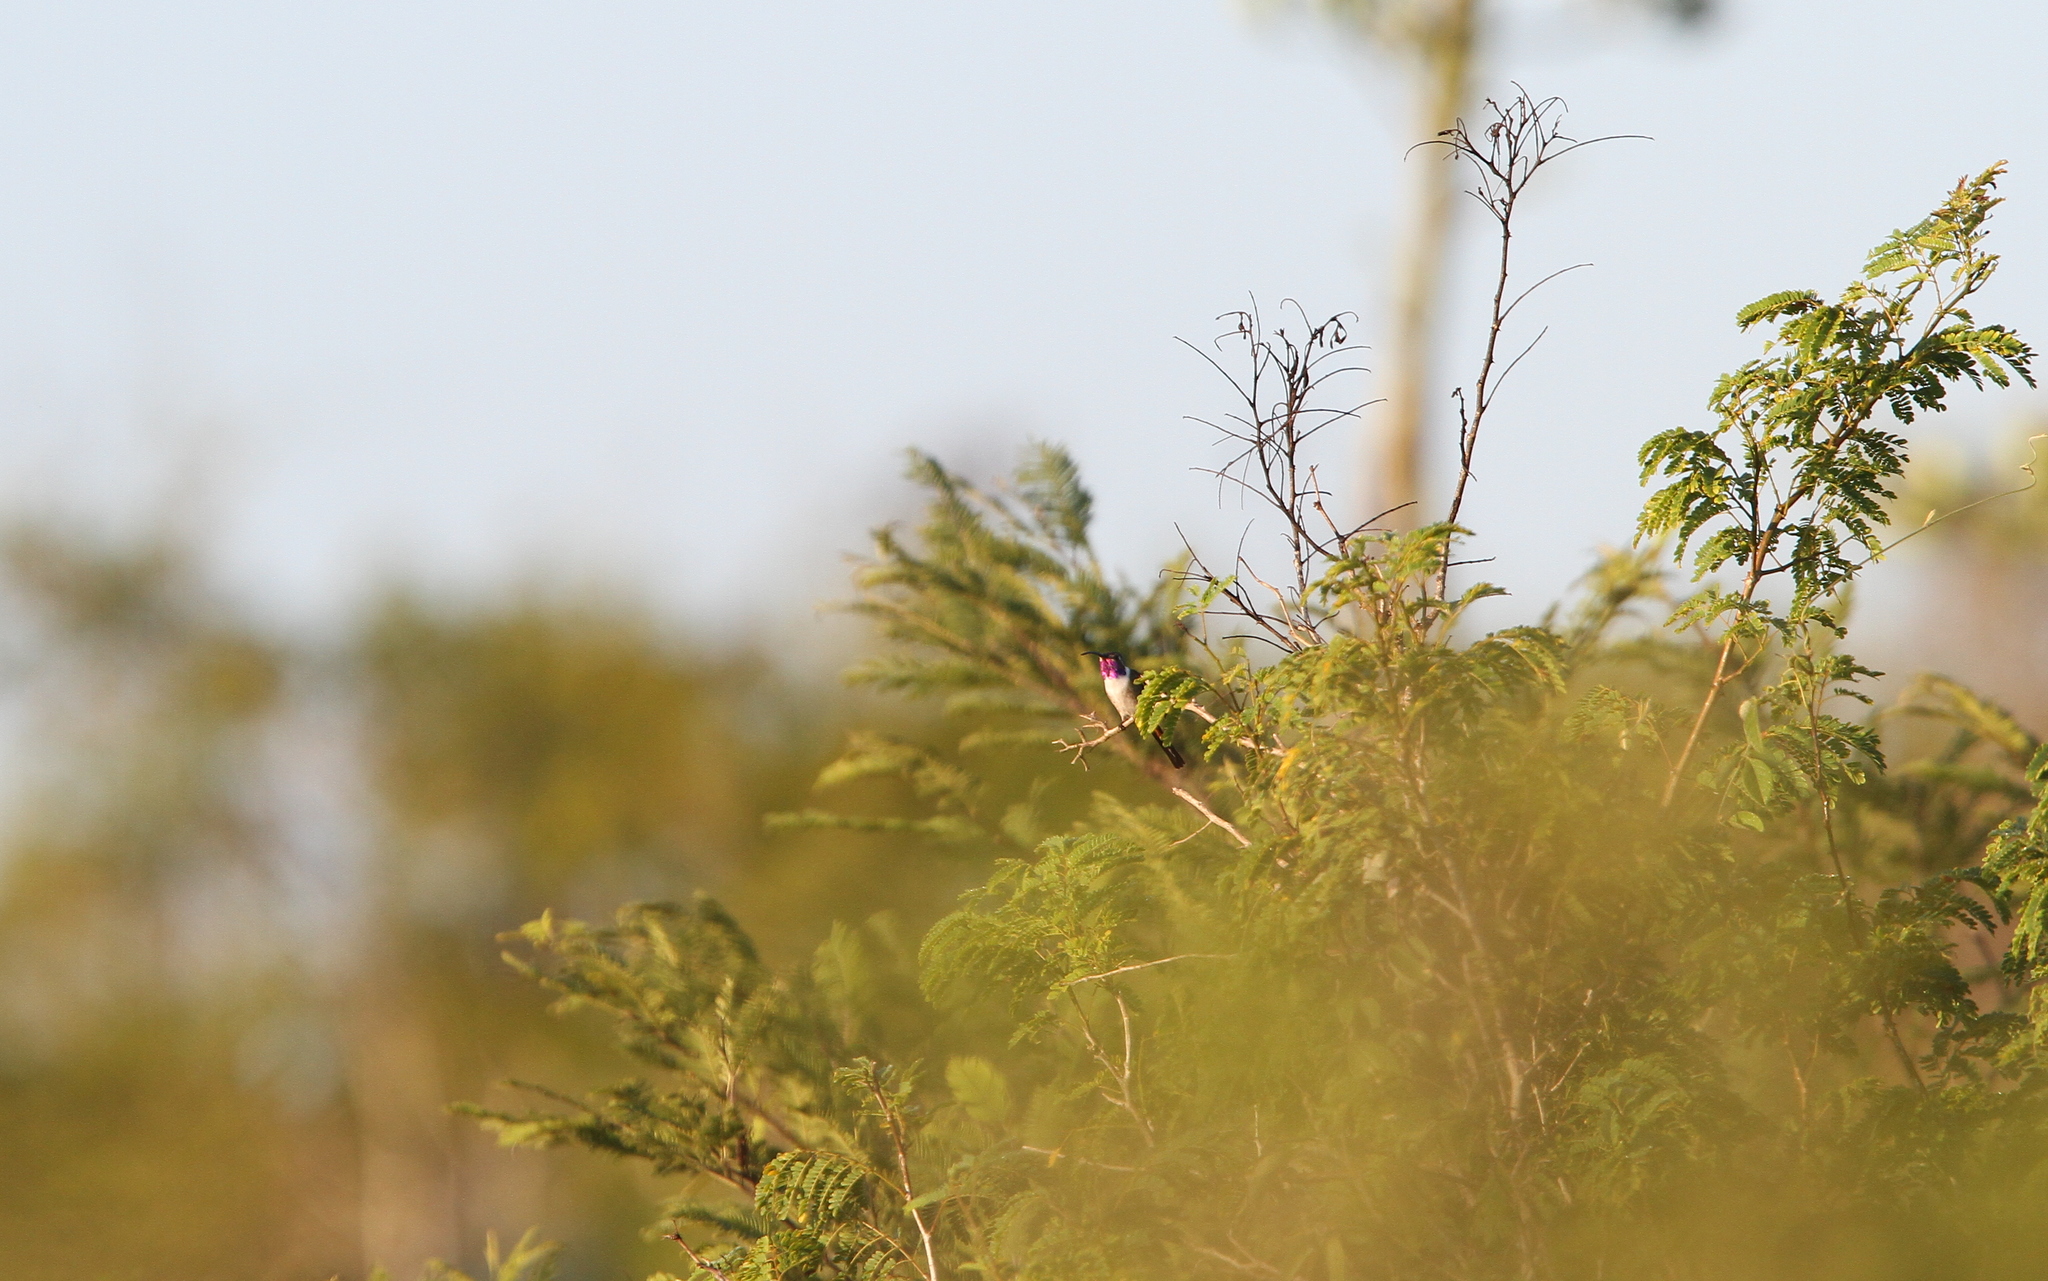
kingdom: Animalia
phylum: Chordata
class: Aves
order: Apodiformes
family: Trochilidae
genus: Doricha
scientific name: Doricha eliza
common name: Mexican sheartail
